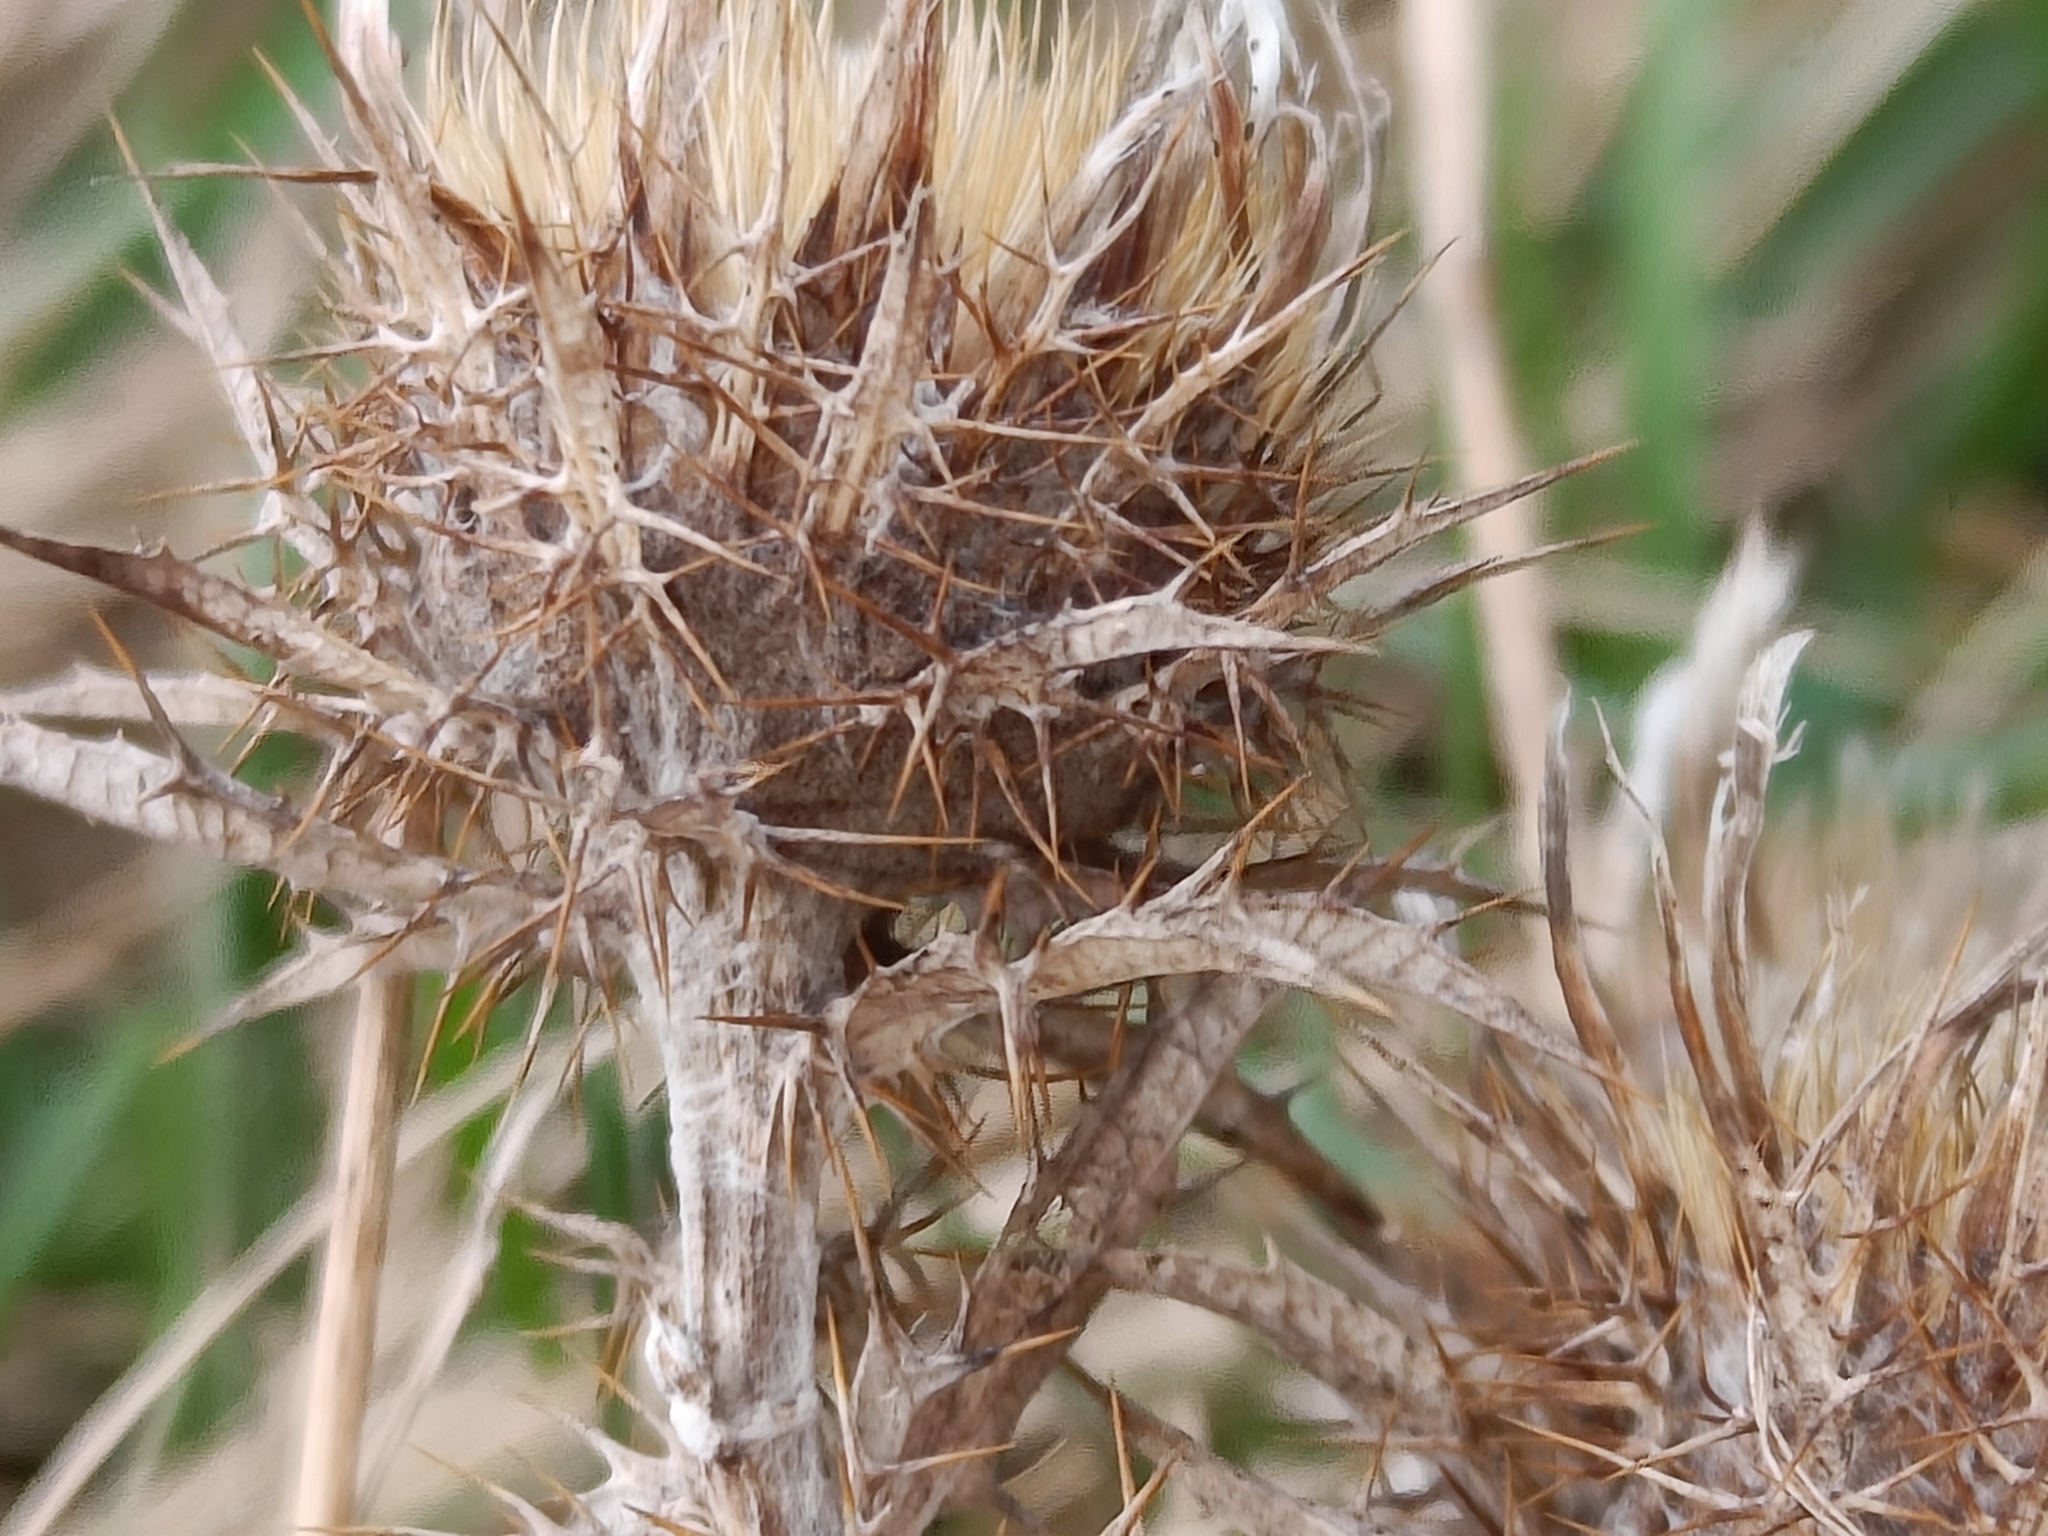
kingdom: Plantae
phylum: Tracheophyta
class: Magnoliopsida
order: Asterales
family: Asteraceae
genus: Carlina
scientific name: Carlina vulgaris
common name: Carline thistle
